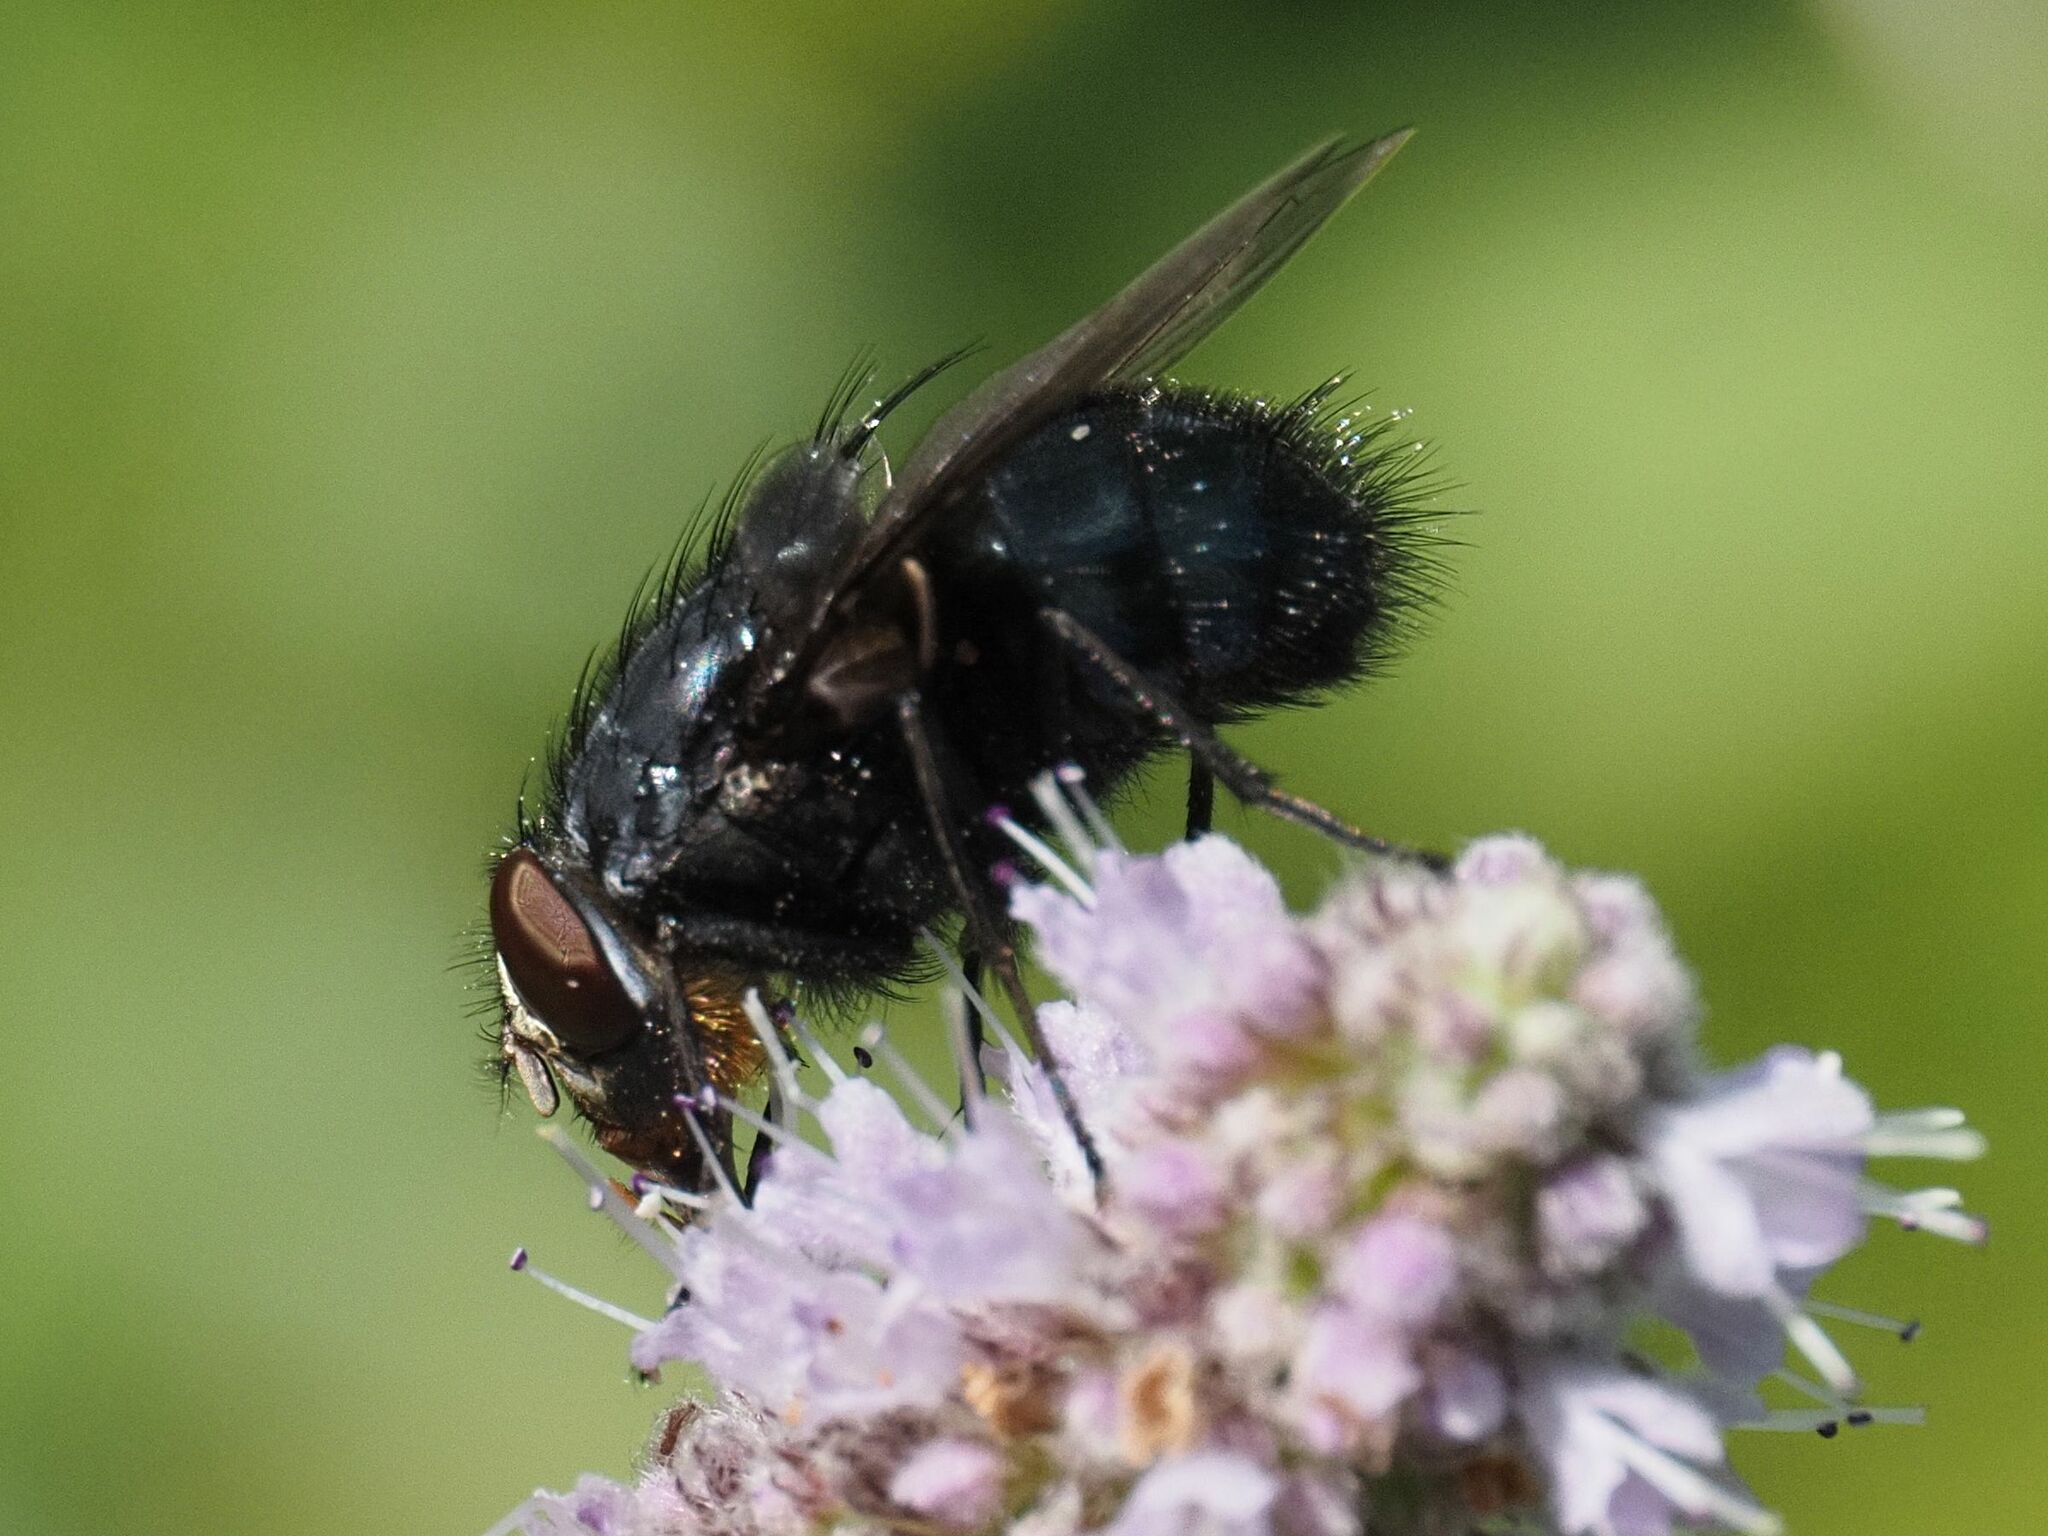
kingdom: Animalia
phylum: Arthropoda
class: Insecta
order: Diptera
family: Calliphoridae
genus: Calliphora
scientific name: Calliphora vomitoria
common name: Blue bottle fly
